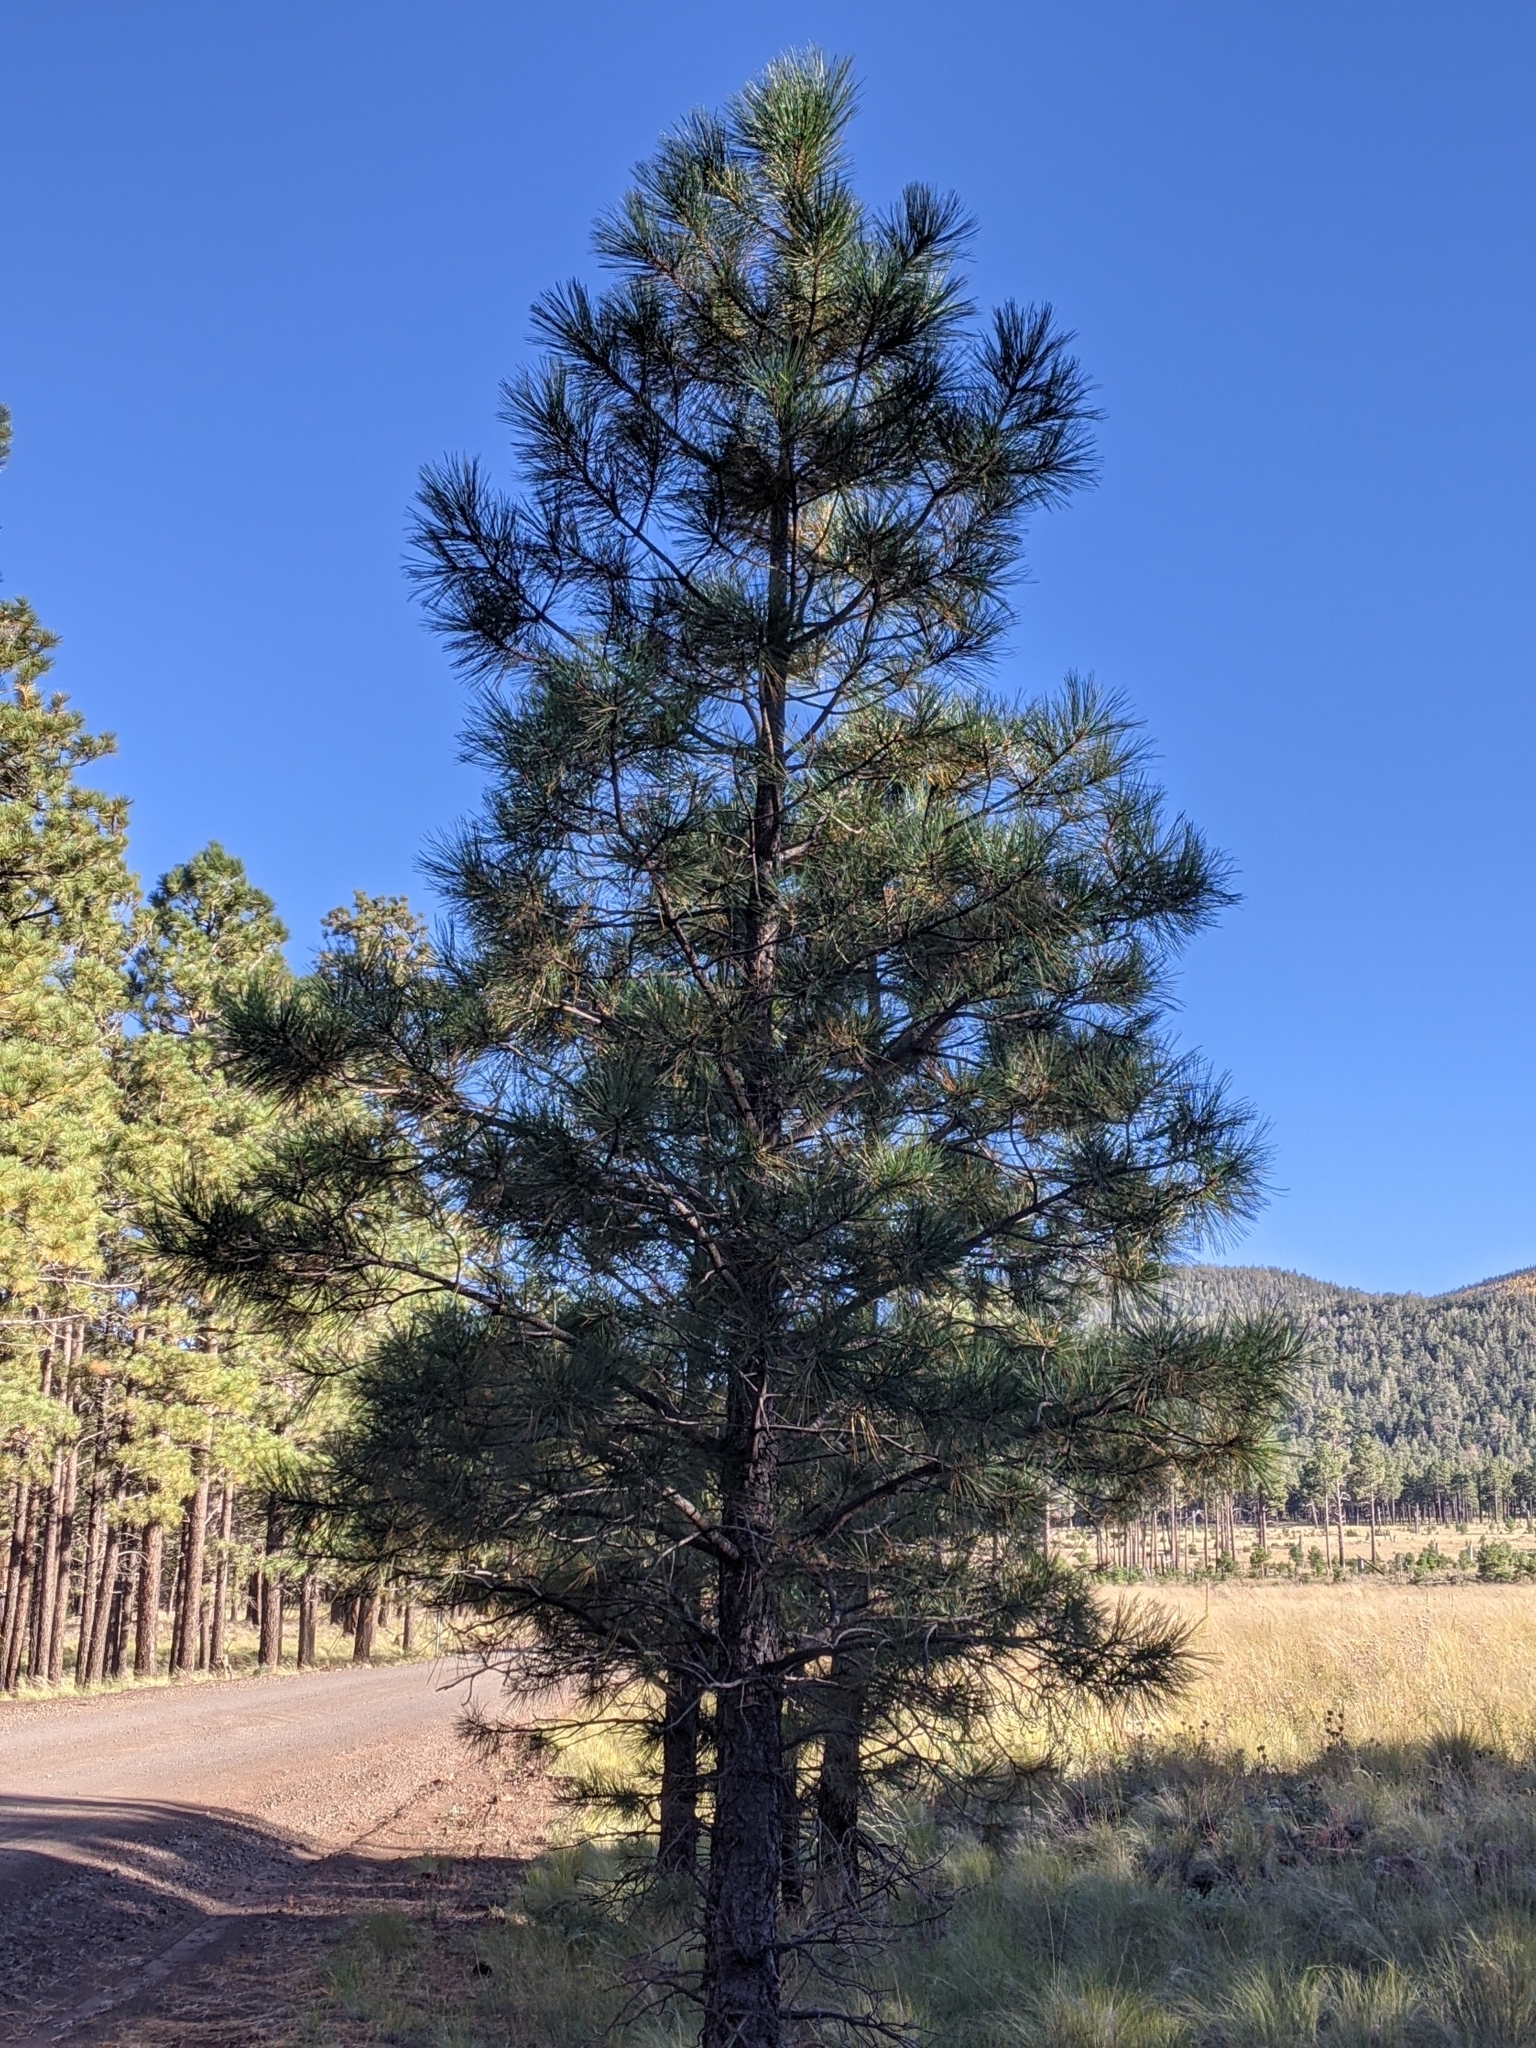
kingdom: Plantae
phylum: Tracheophyta
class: Pinopsida
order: Pinales
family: Pinaceae
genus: Pinus
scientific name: Pinus ponderosa
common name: Western yellow-pine
